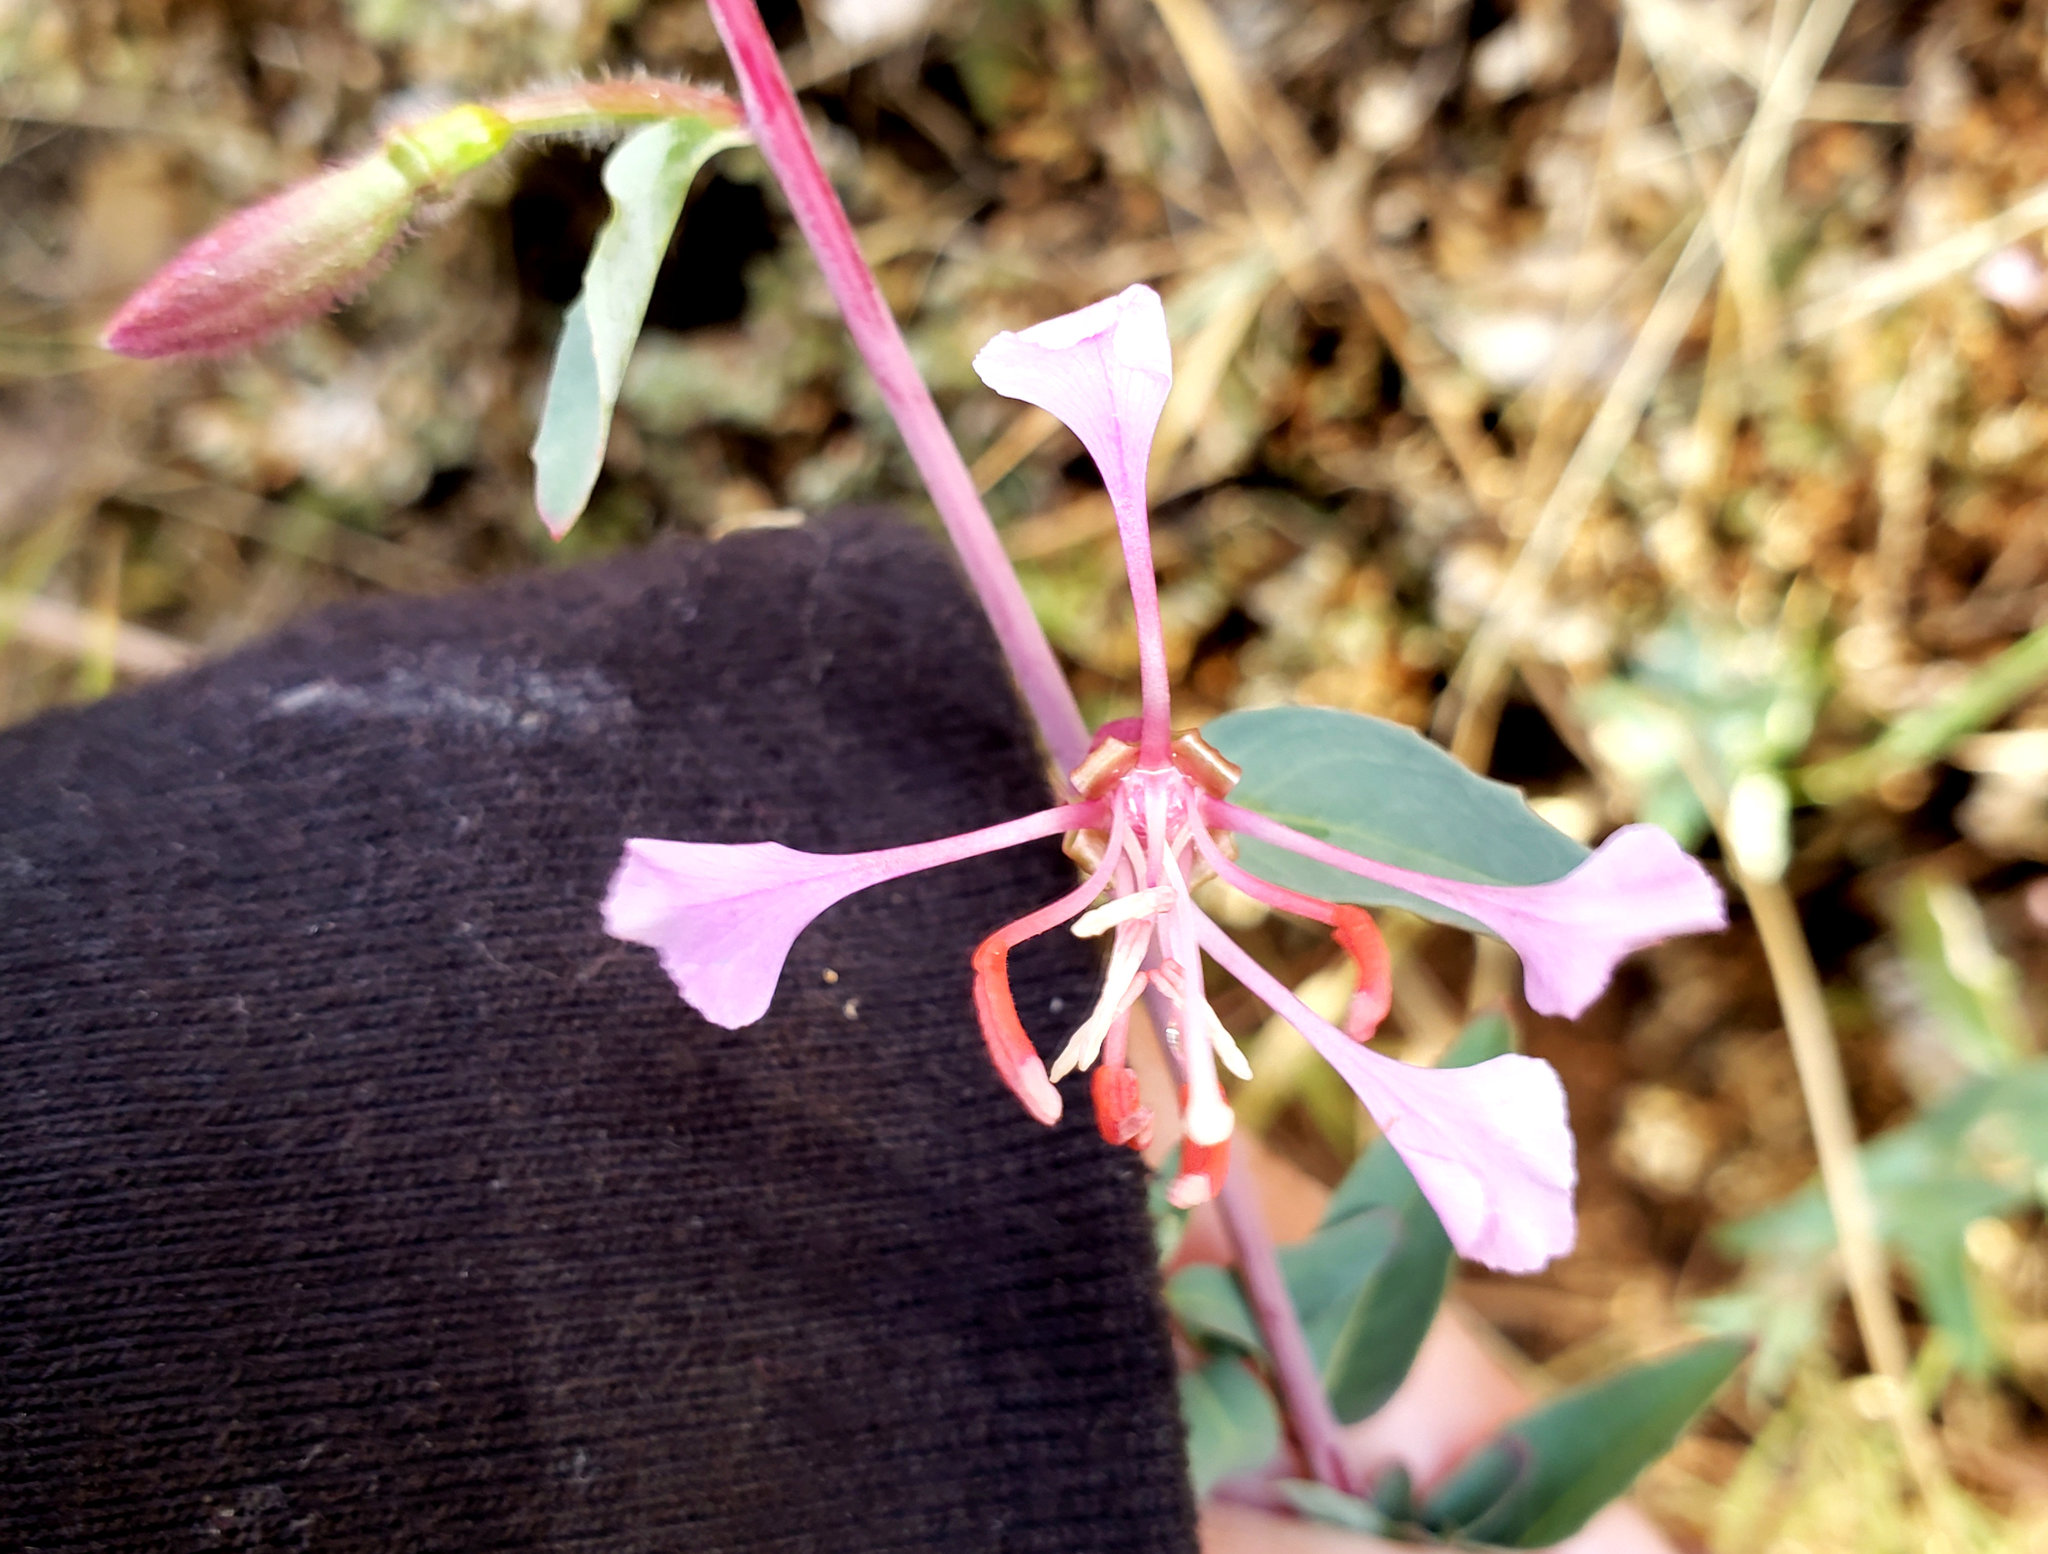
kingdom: Plantae
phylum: Tracheophyta
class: Magnoliopsida
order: Myrtales
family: Onagraceae
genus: Clarkia
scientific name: Clarkia unguiculata
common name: Clarkia
